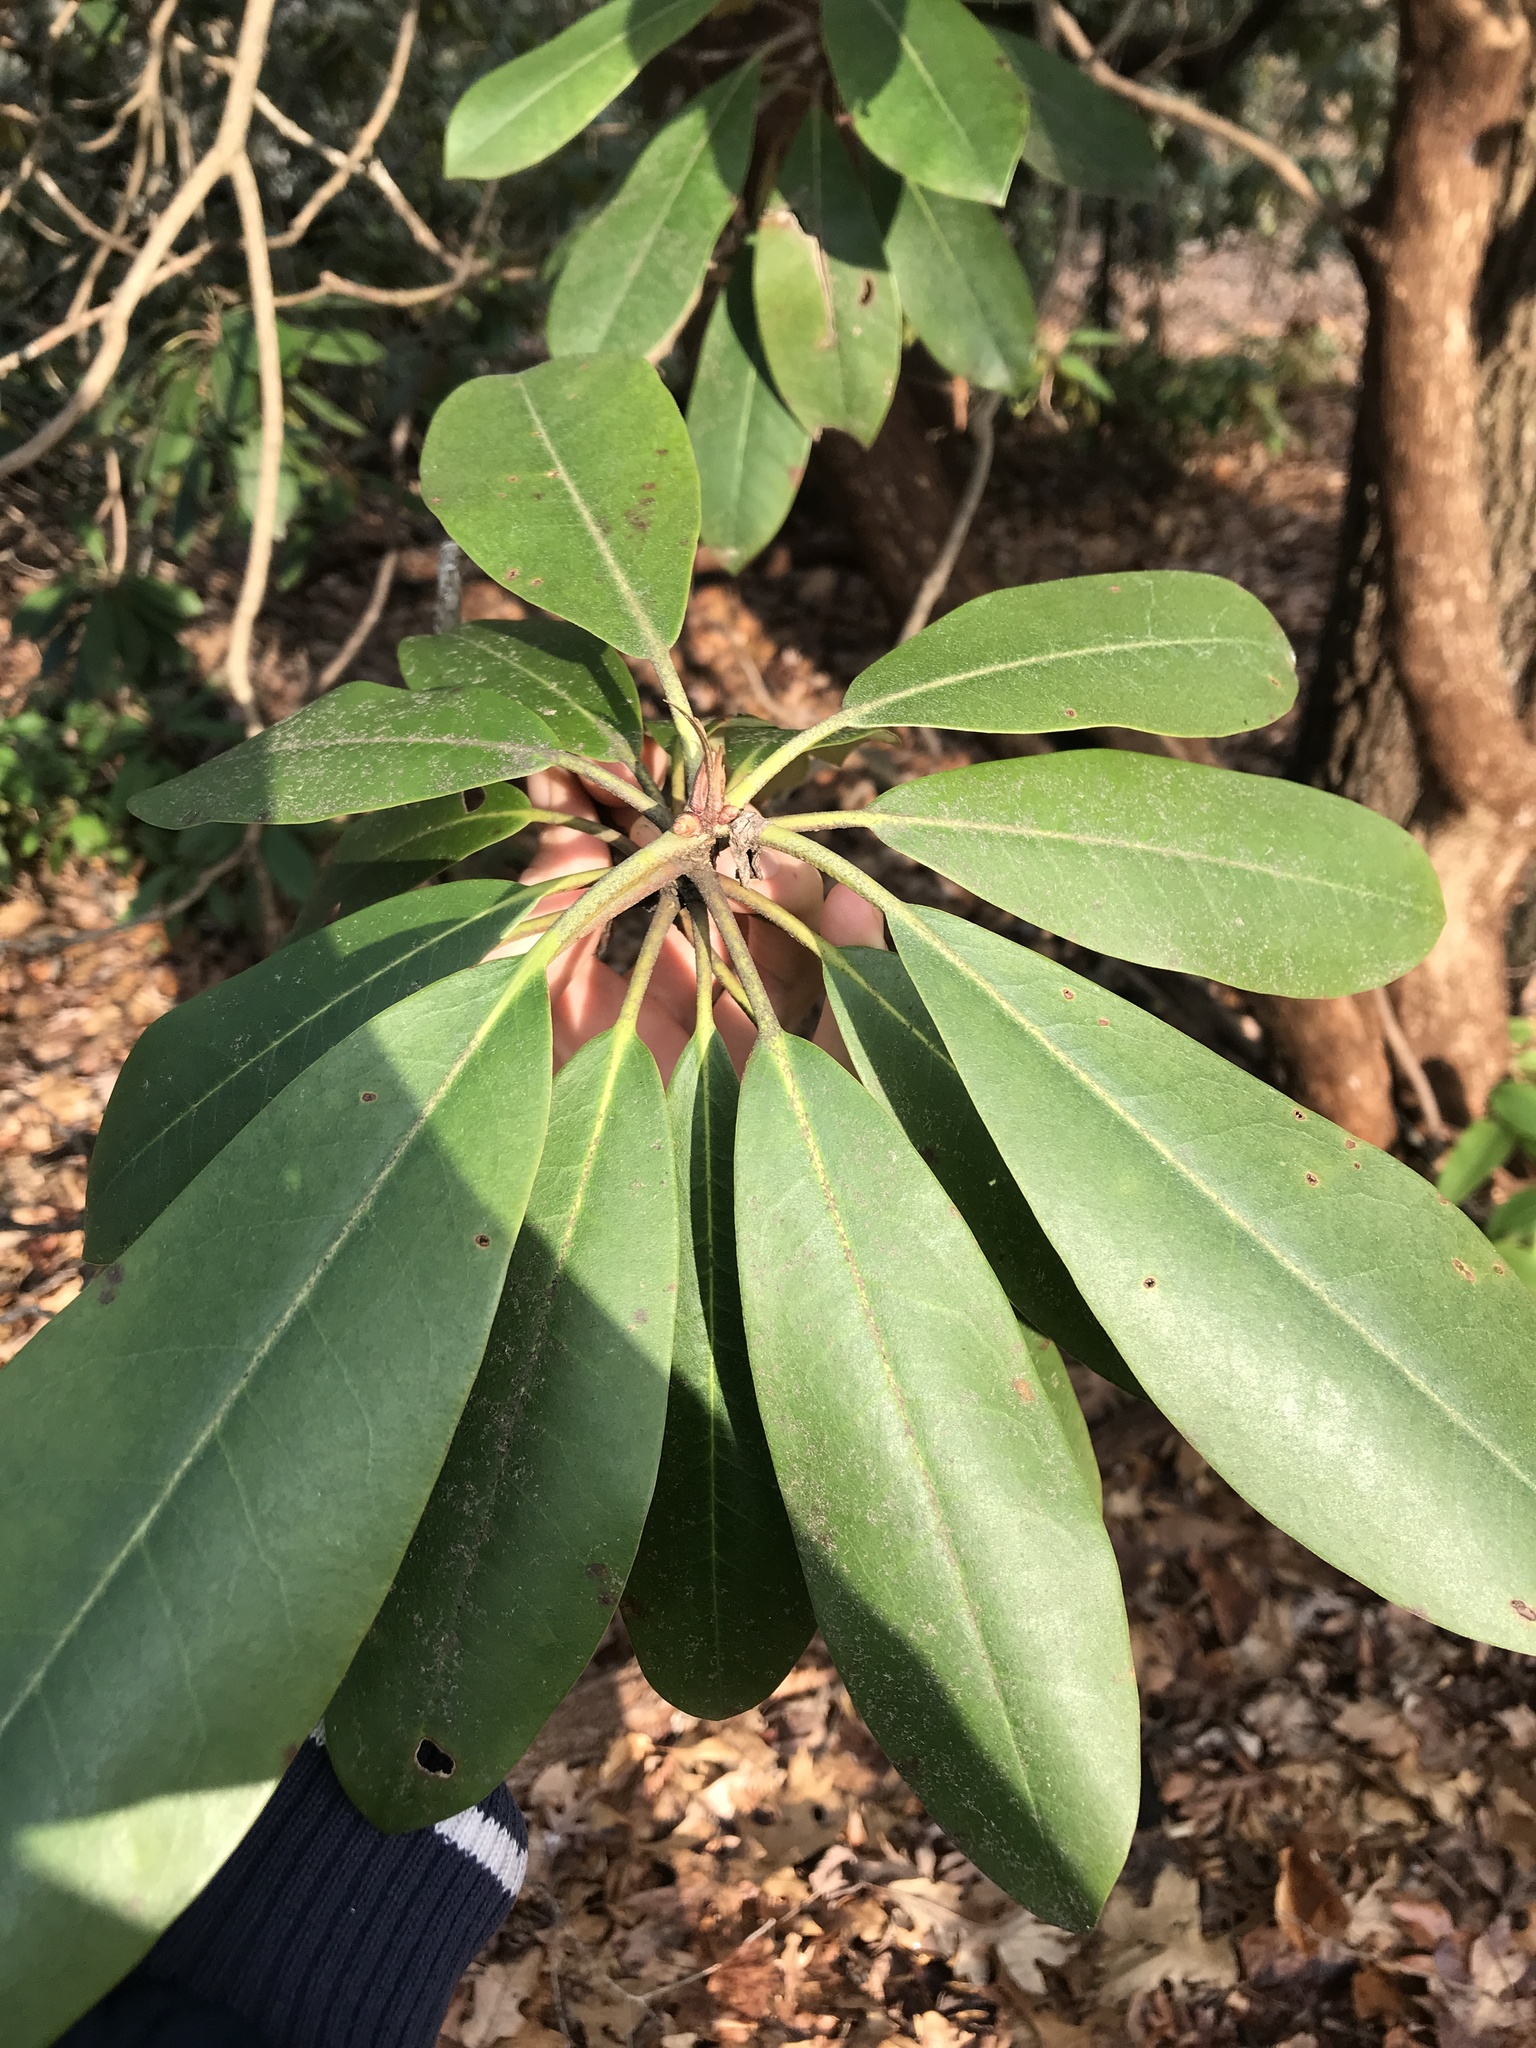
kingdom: Plantae
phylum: Tracheophyta
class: Magnoliopsida
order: Ericales
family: Ericaceae
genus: Rhododendron
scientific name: Rhododendron maximum
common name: Great rhododendron
